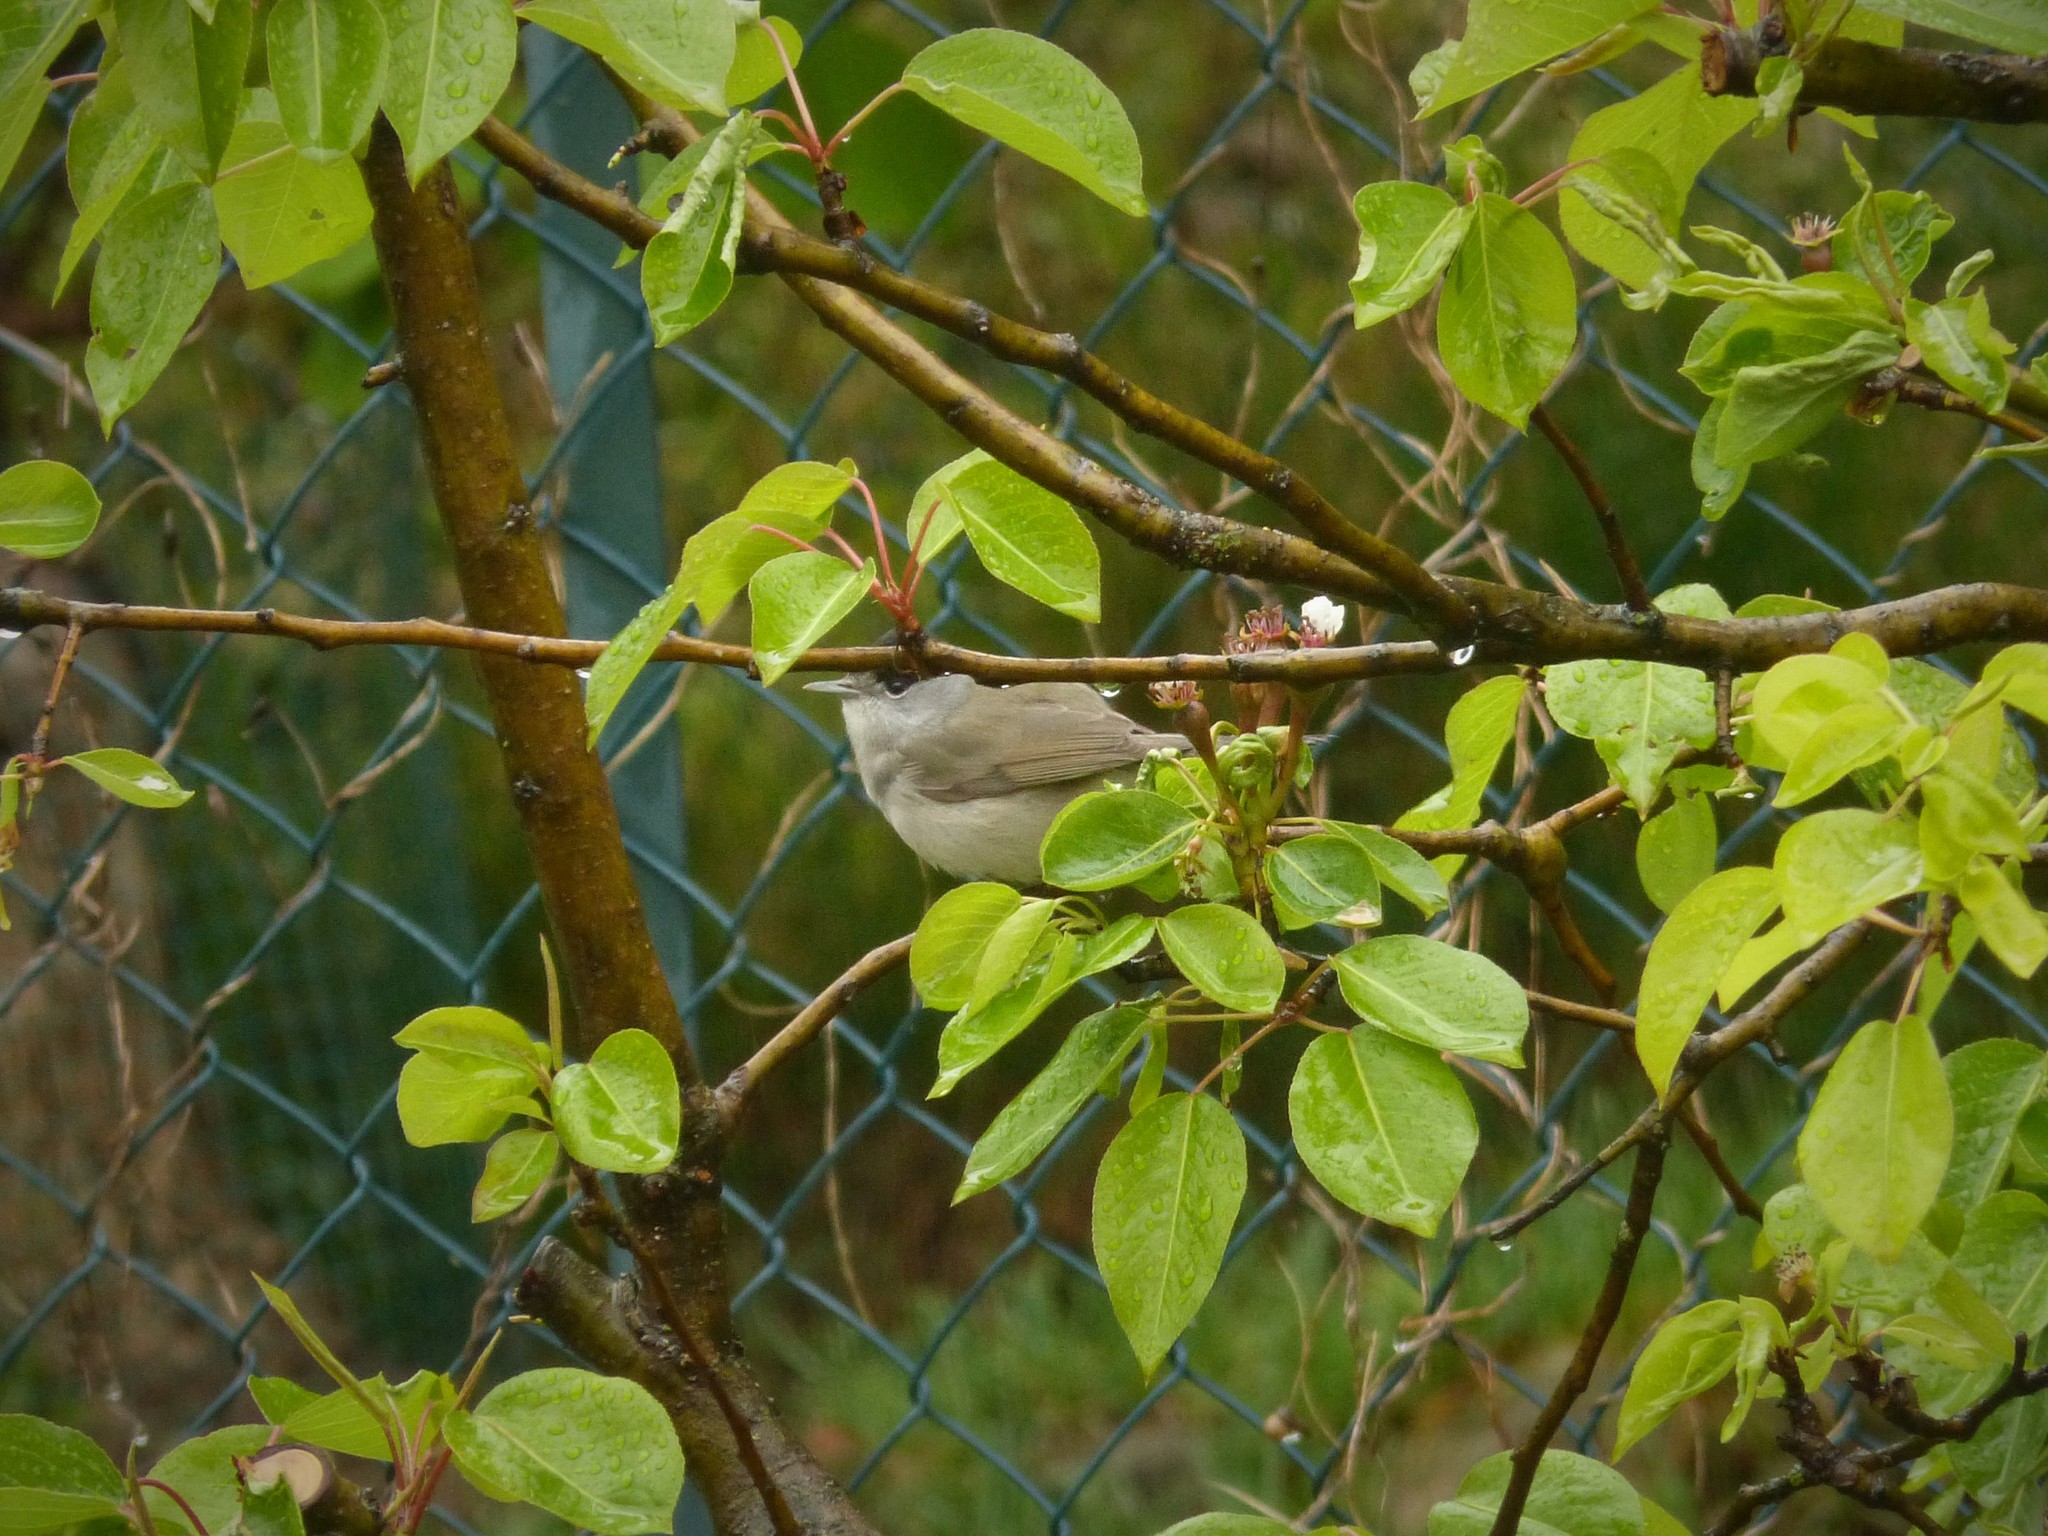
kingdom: Animalia
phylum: Chordata
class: Aves
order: Passeriformes
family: Sylviidae
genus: Sylvia
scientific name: Sylvia atricapilla
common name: Eurasian blackcap
